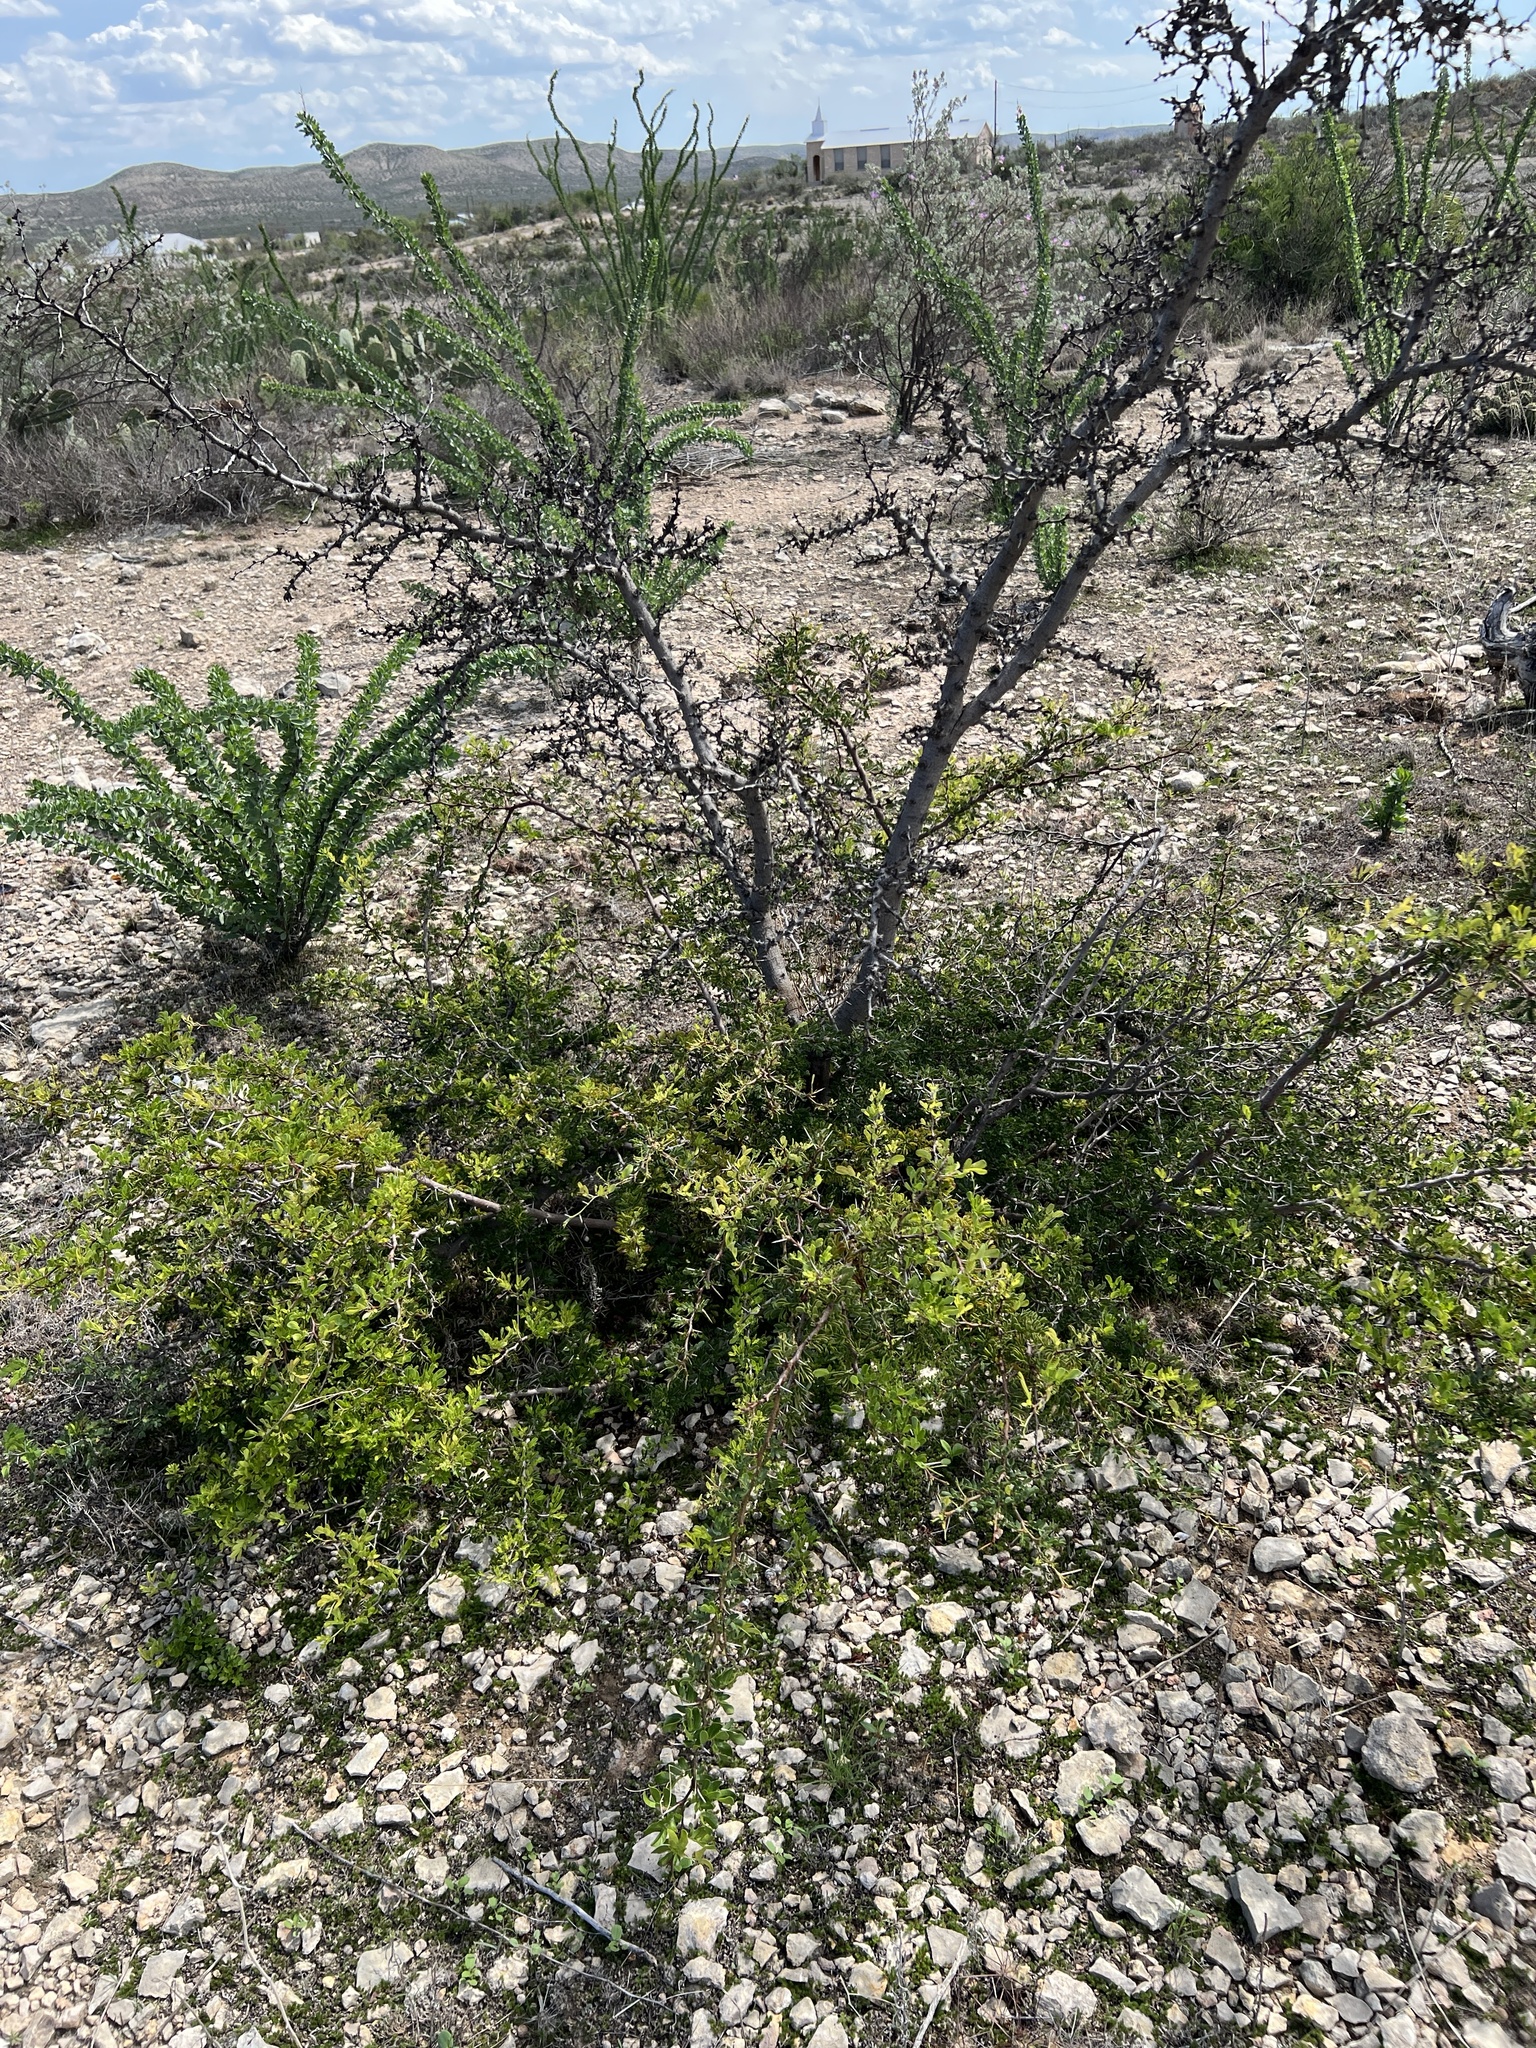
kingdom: Plantae
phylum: Tracheophyta
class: Magnoliopsida
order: Fabales
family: Fabaceae
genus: Vachellia
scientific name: Vachellia rigidula
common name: Blackbrush
